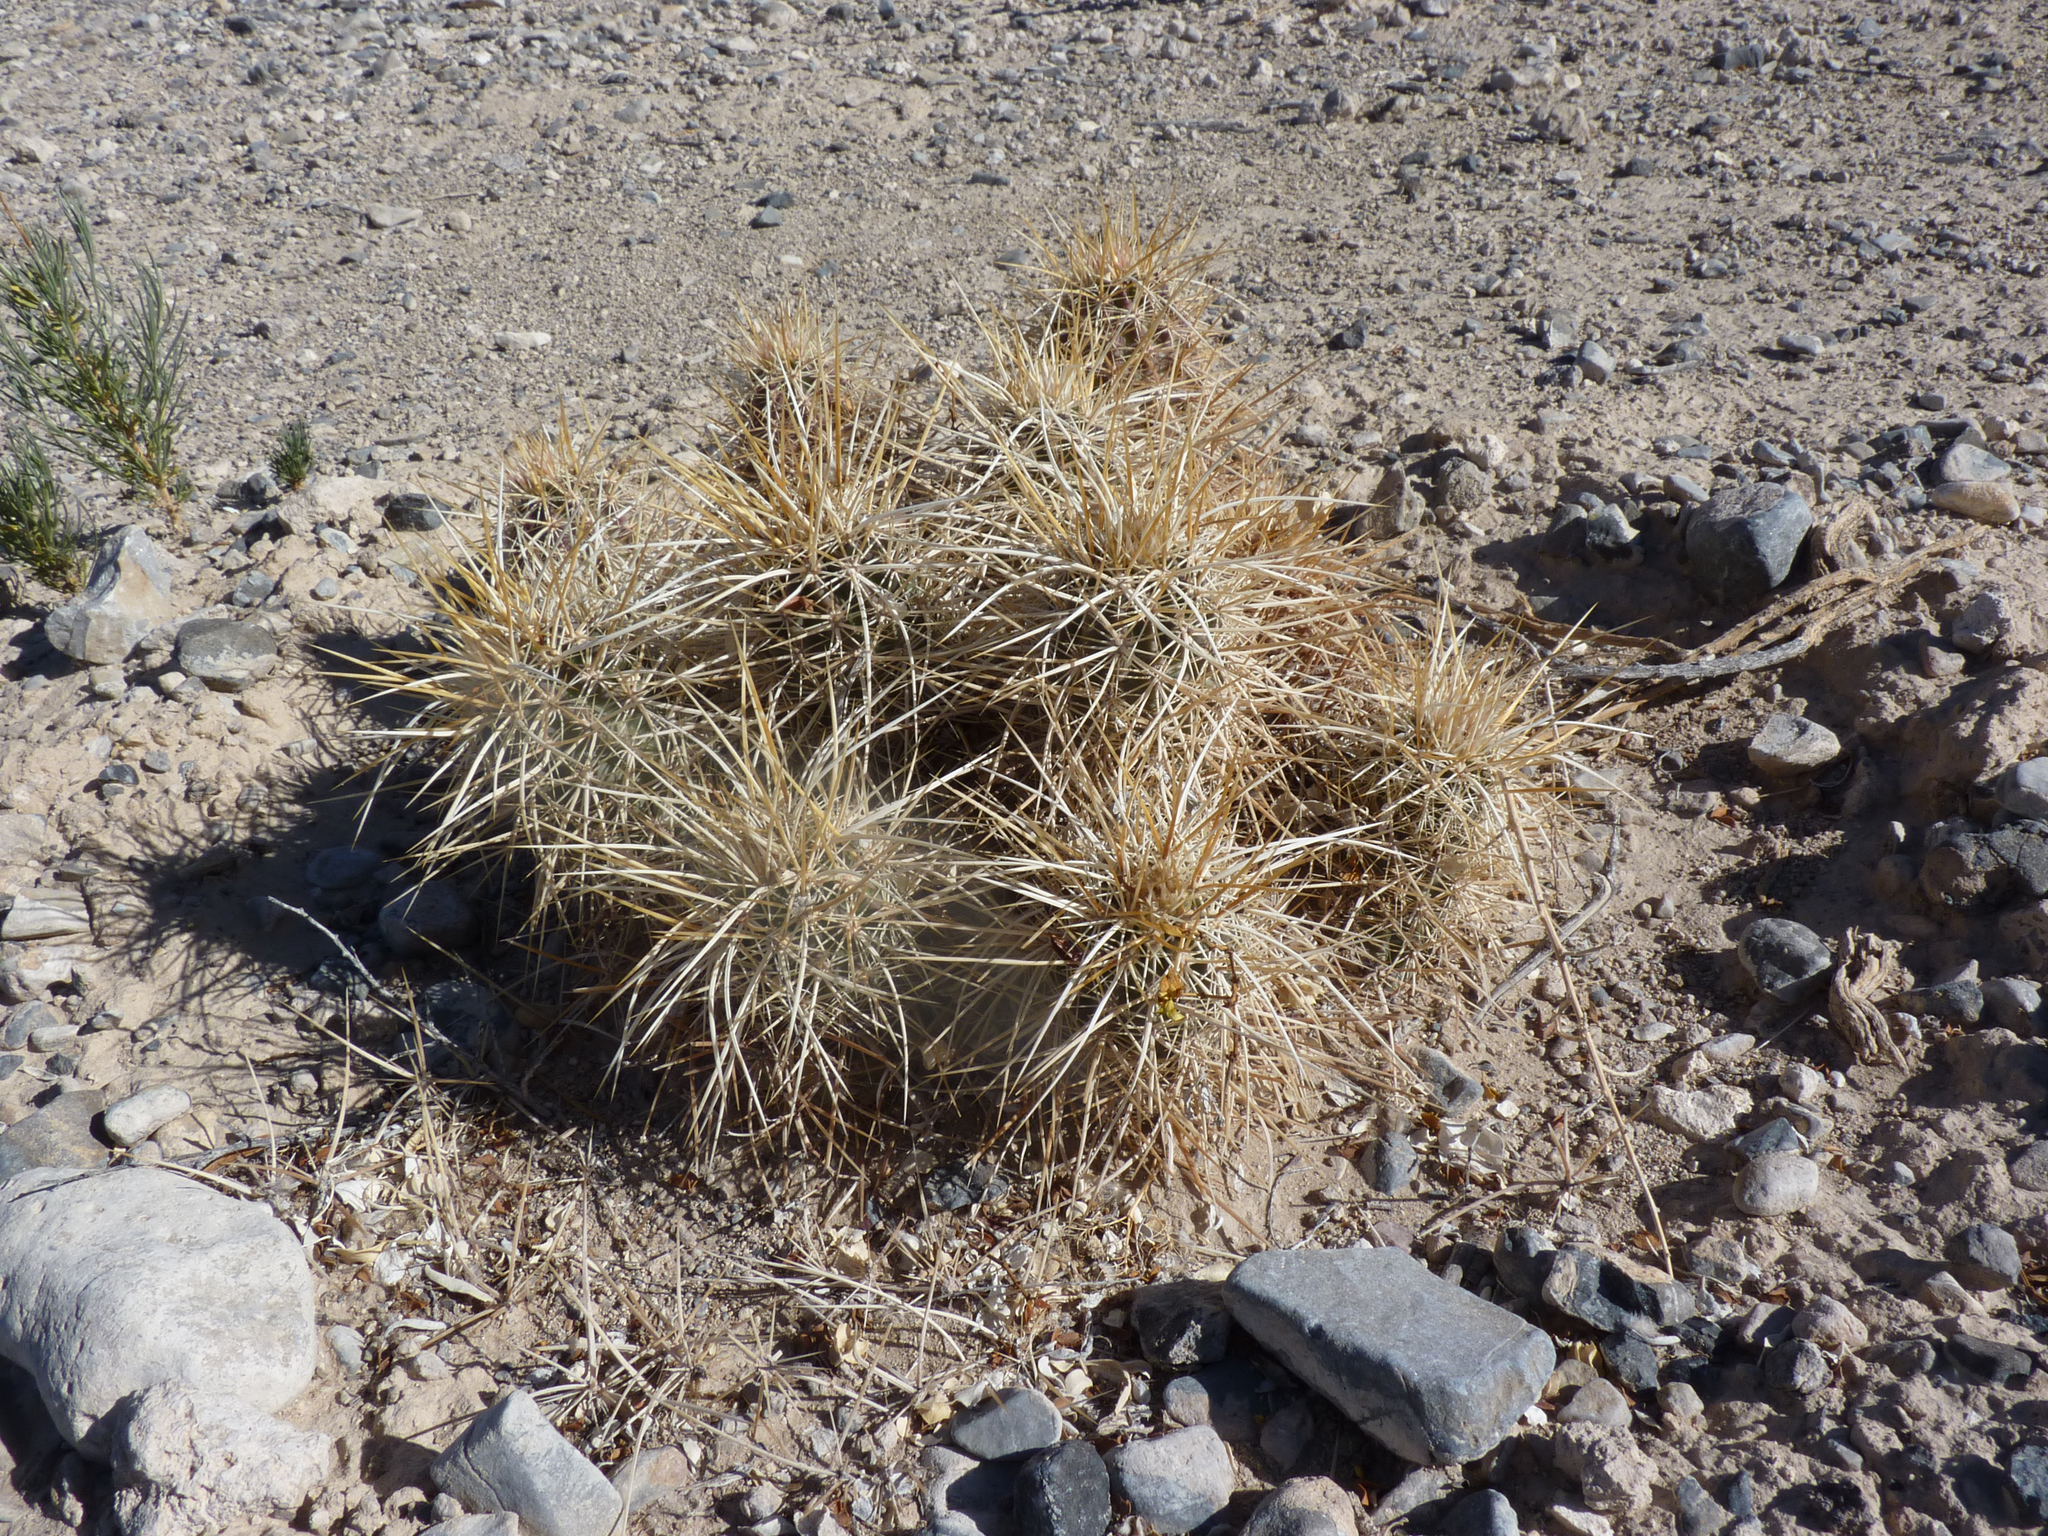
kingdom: Plantae
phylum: Tracheophyta
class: Magnoliopsida
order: Caryophyllales
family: Cactaceae
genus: Echinocereus
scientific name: Echinocereus engelmannii
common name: Engelmann's hedgehog cactus
